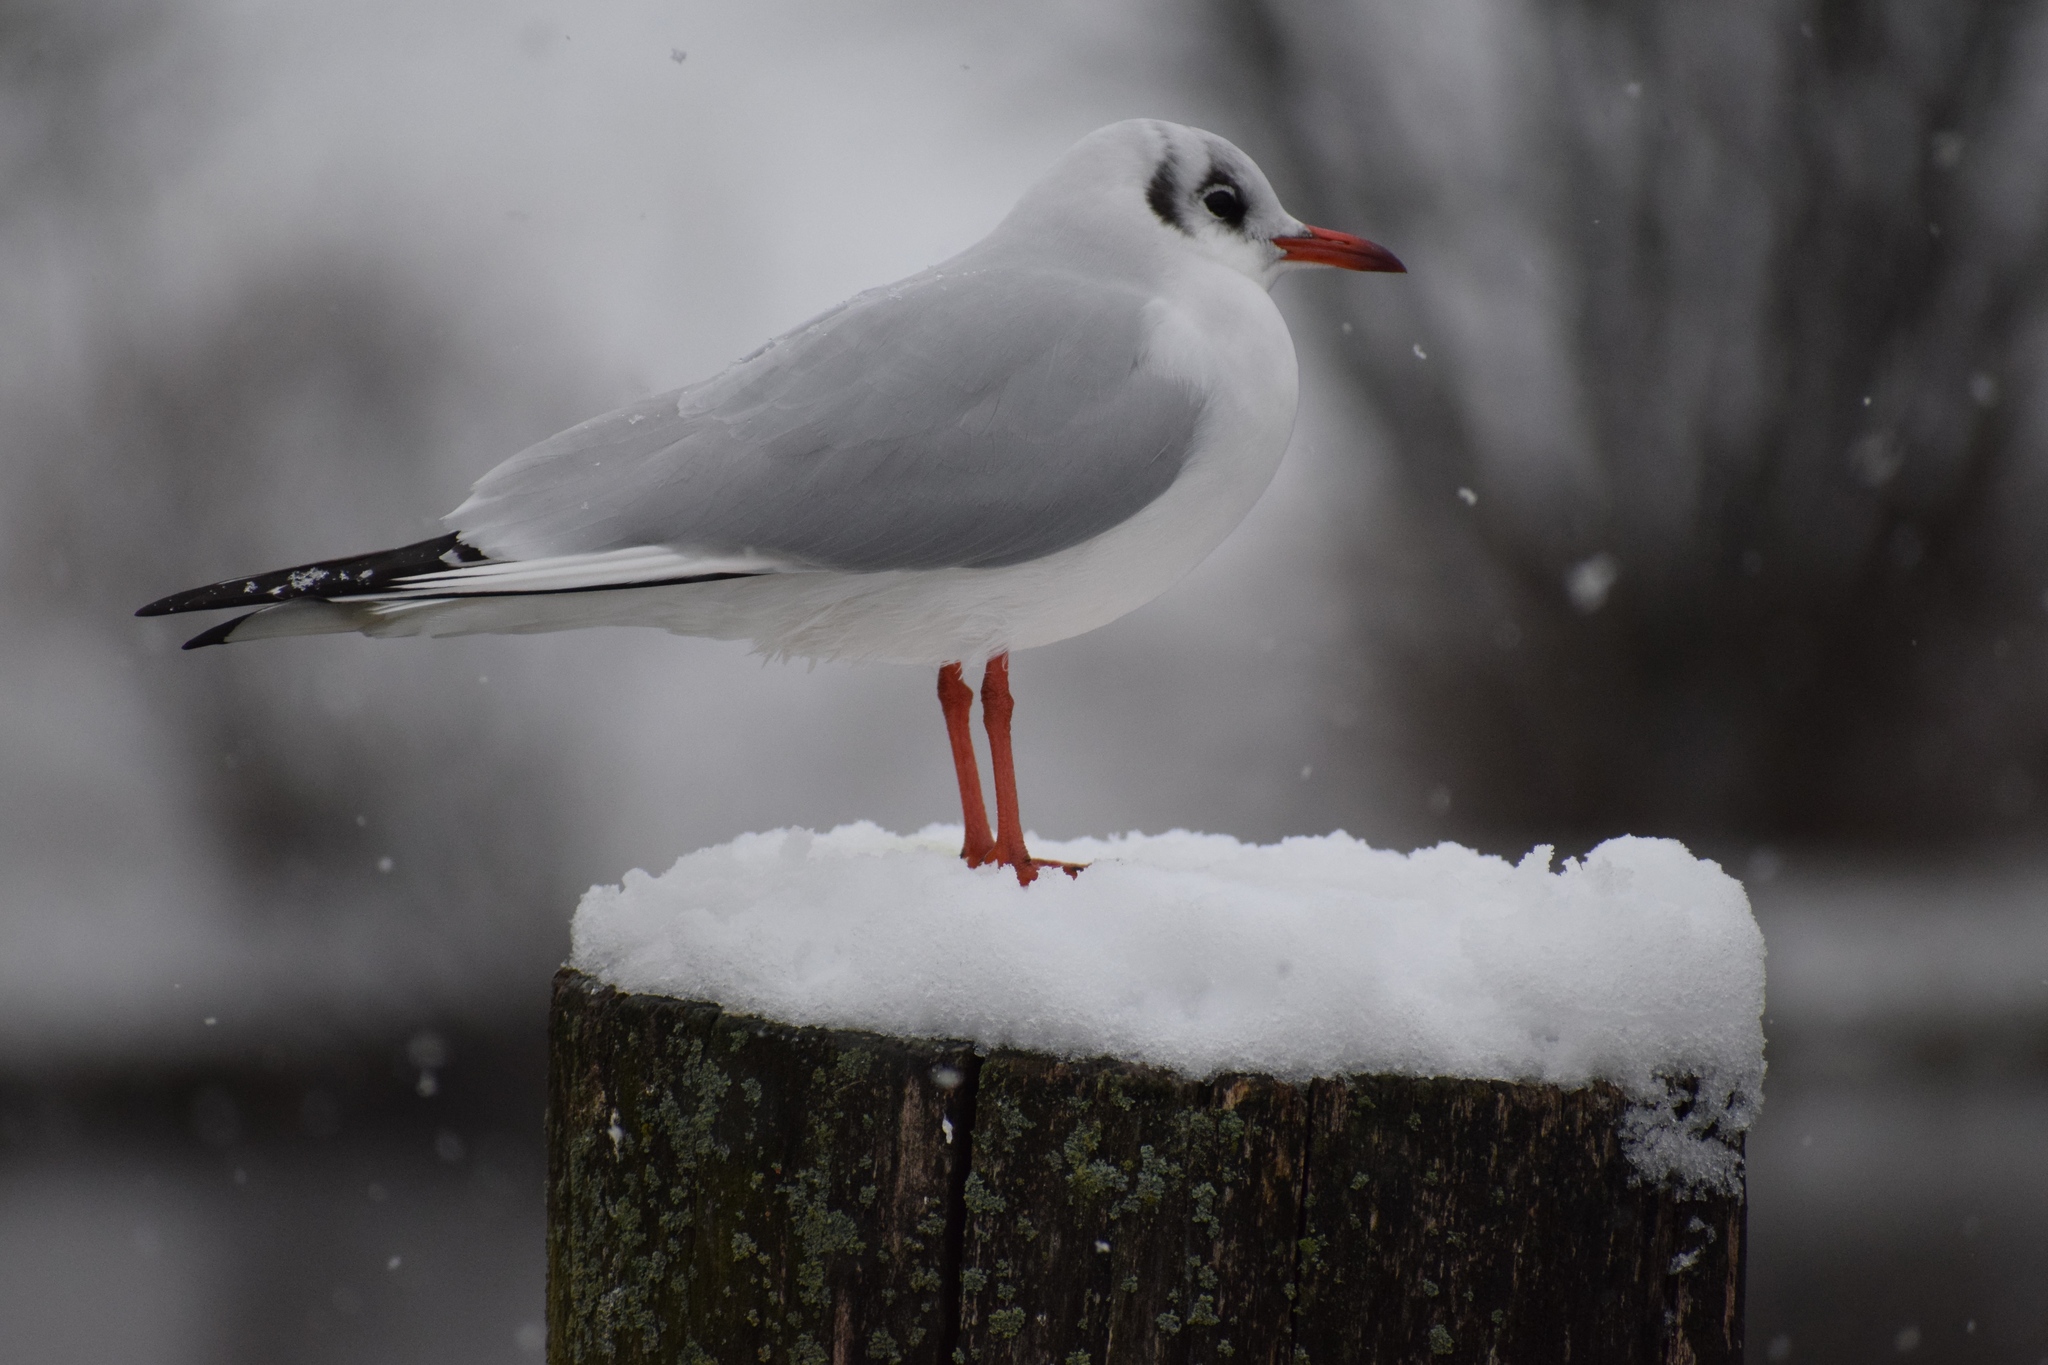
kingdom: Animalia
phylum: Chordata
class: Aves
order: Charadriiformes
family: Laridae
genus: Chroicocephalus
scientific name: Chroicocephalus ridibundus
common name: Black-headed gull
